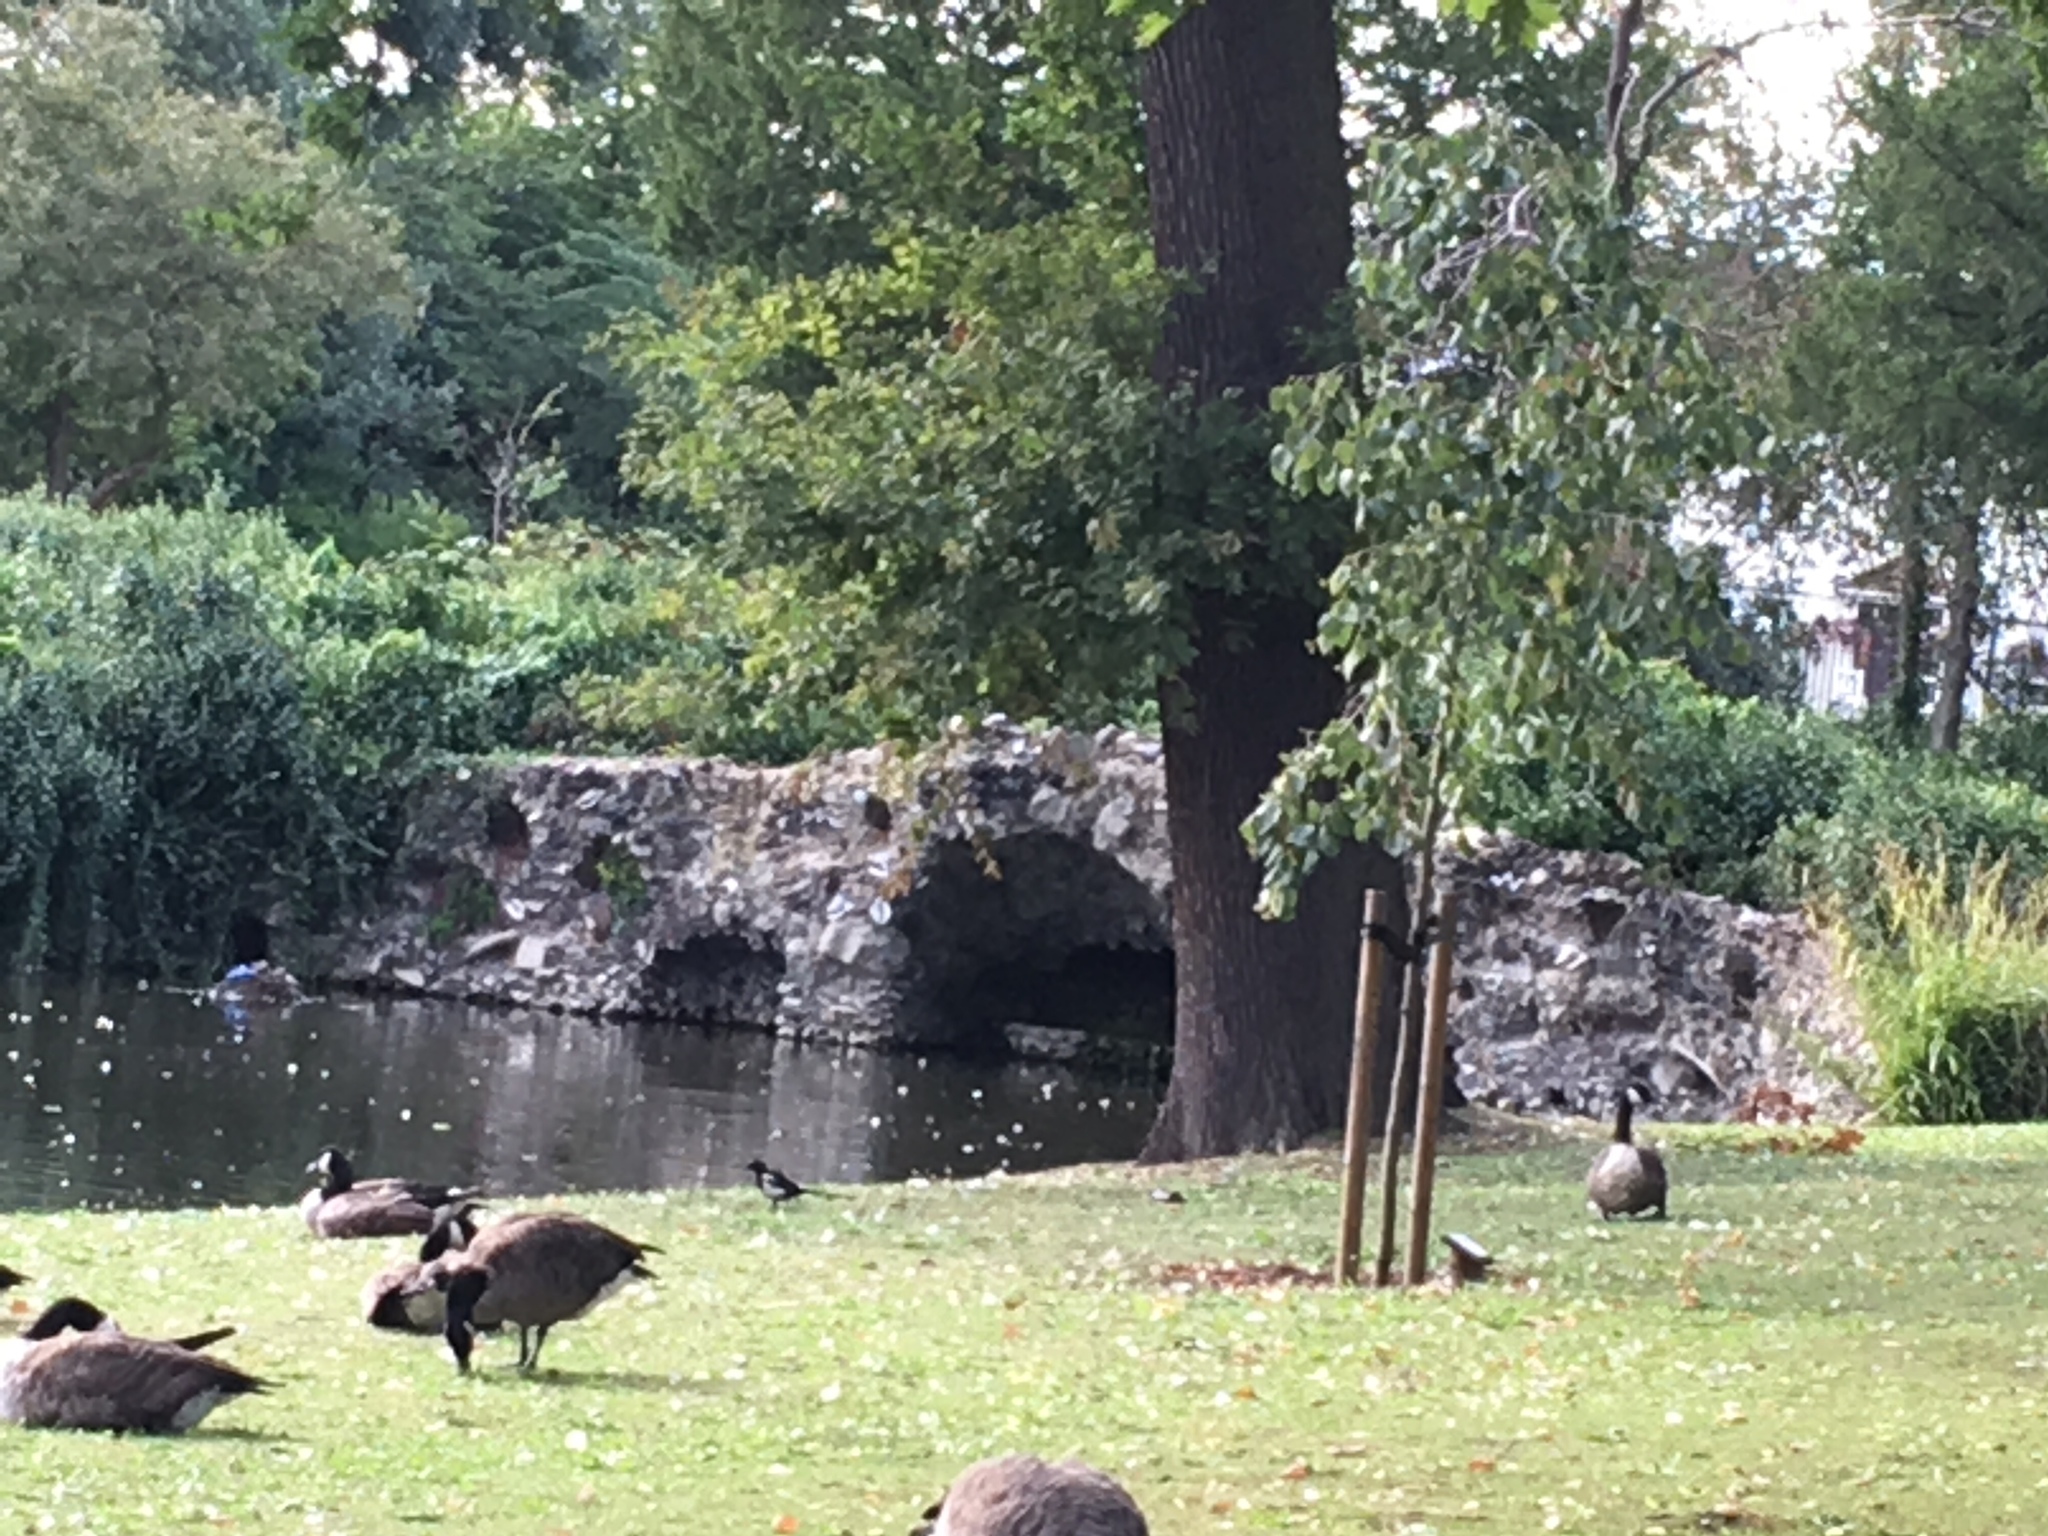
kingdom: Animalia
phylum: Chordata
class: Aves
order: Anseriformes
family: Anatidae
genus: Branta
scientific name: Branta canadensis
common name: Canada goose
